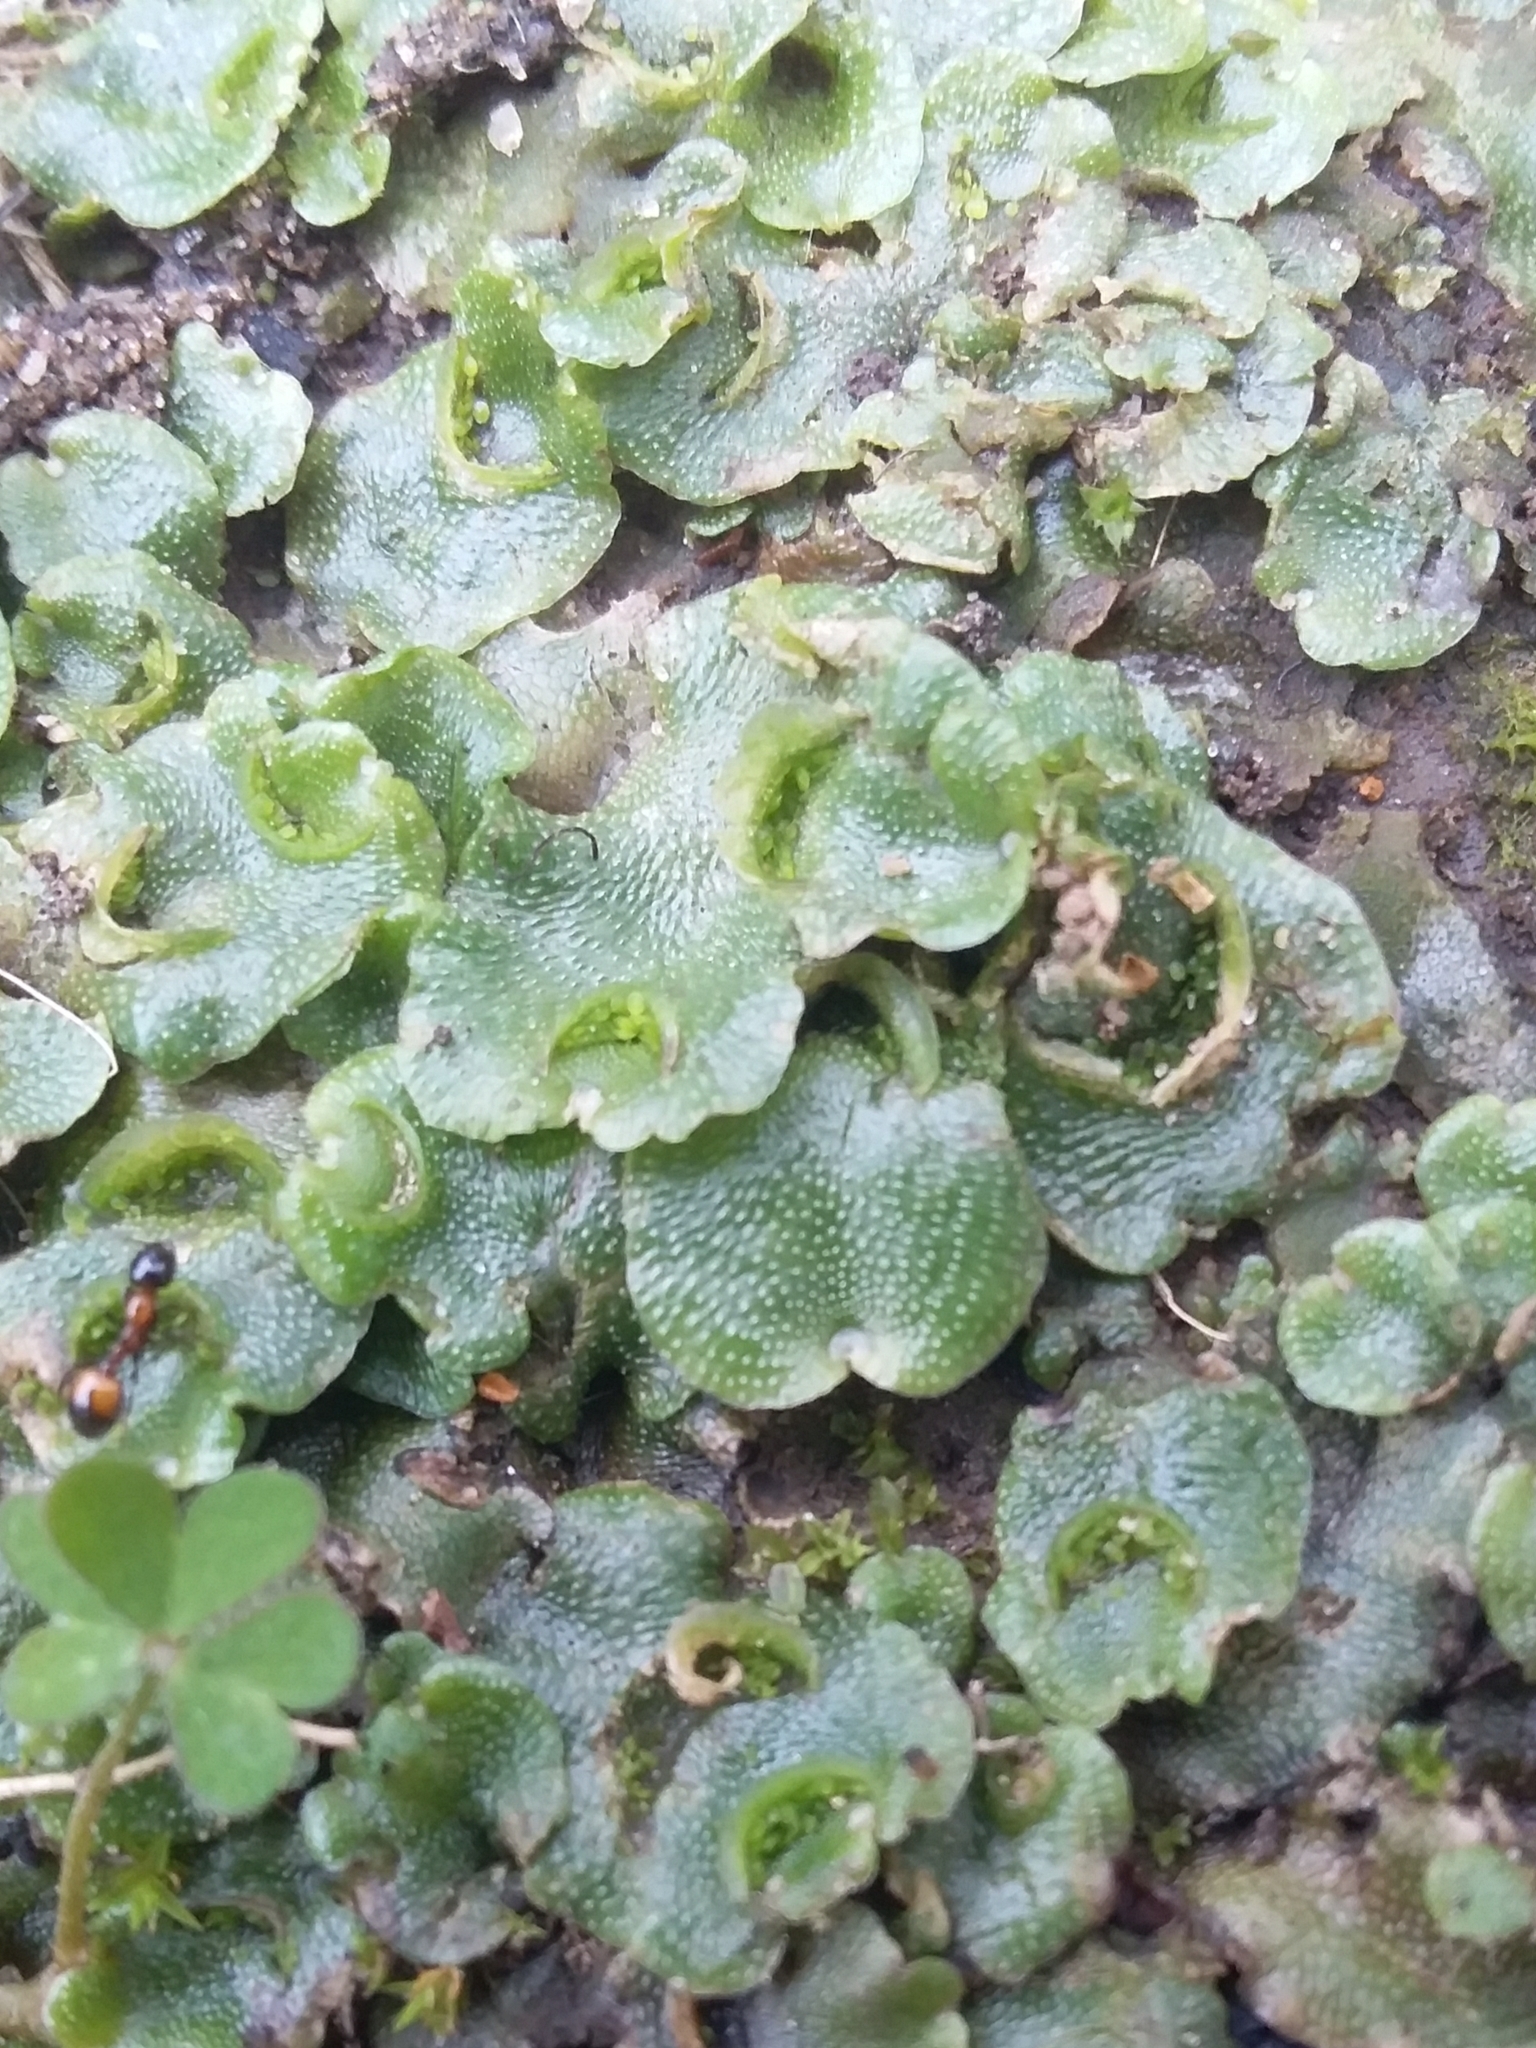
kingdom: Plantae
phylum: Marchantiophyta
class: Marchantiopsida
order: Lunulariales
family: Lunulariaceae
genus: Lunularia
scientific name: Lunularia cruciata
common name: Crescent-cup liverwort
